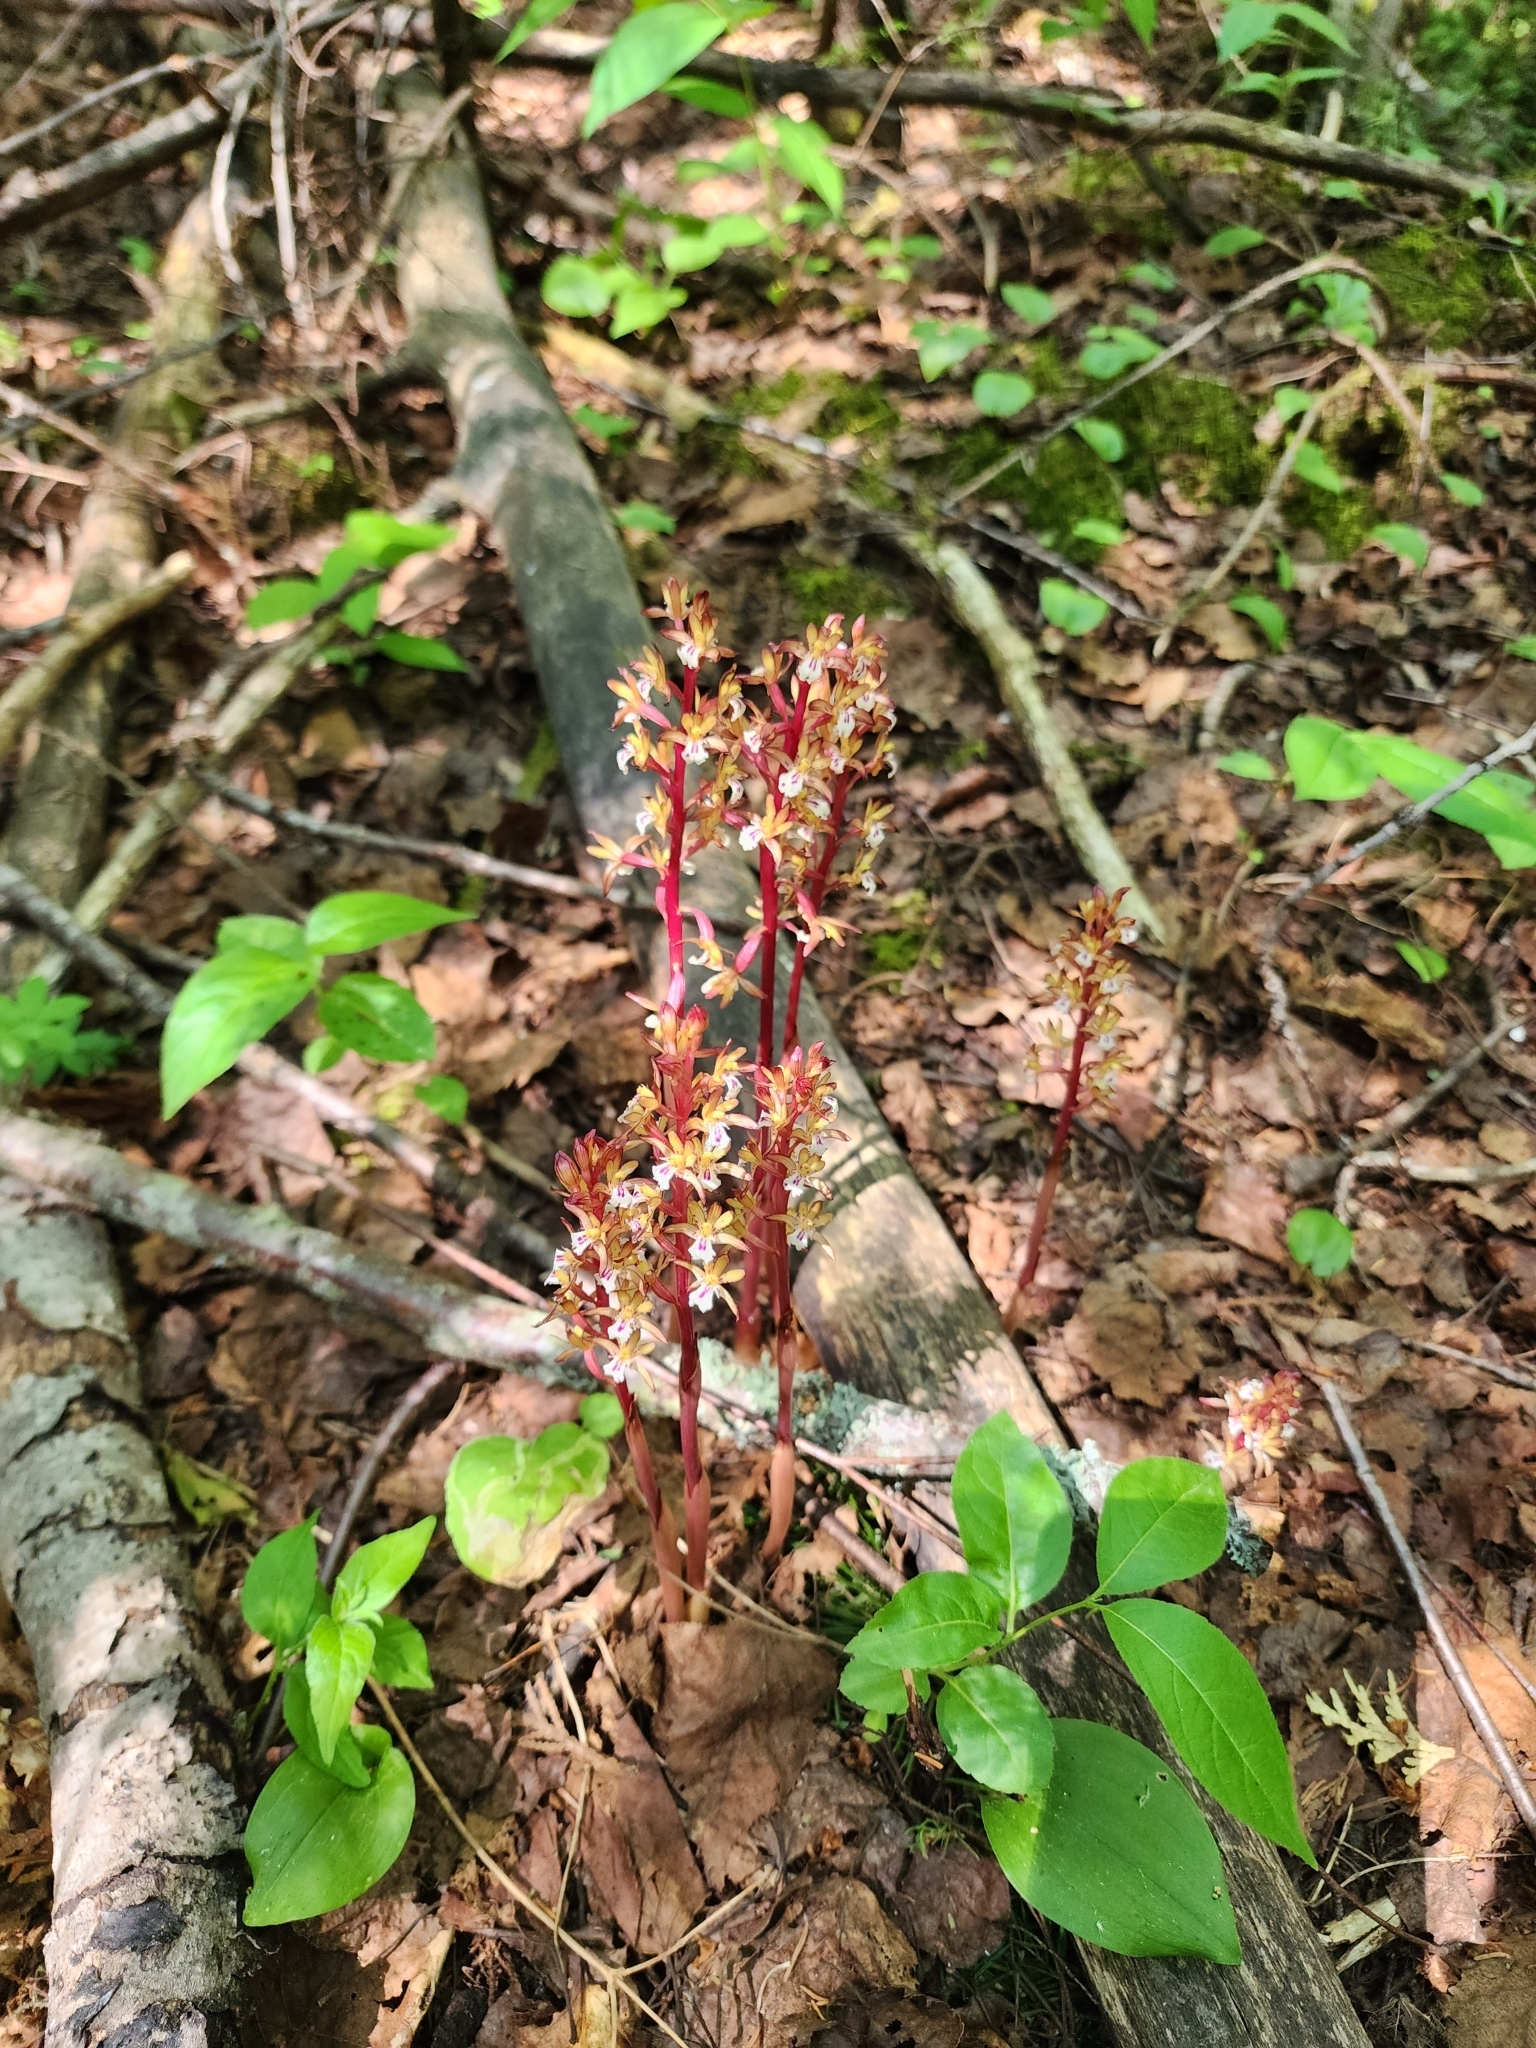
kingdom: Plantae
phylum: Tracheophyta
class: Liliopsida
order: Asparagales
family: Orchidaceae
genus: Corallorhiza
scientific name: Corallorhiza maculata
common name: Spotted coralroot
